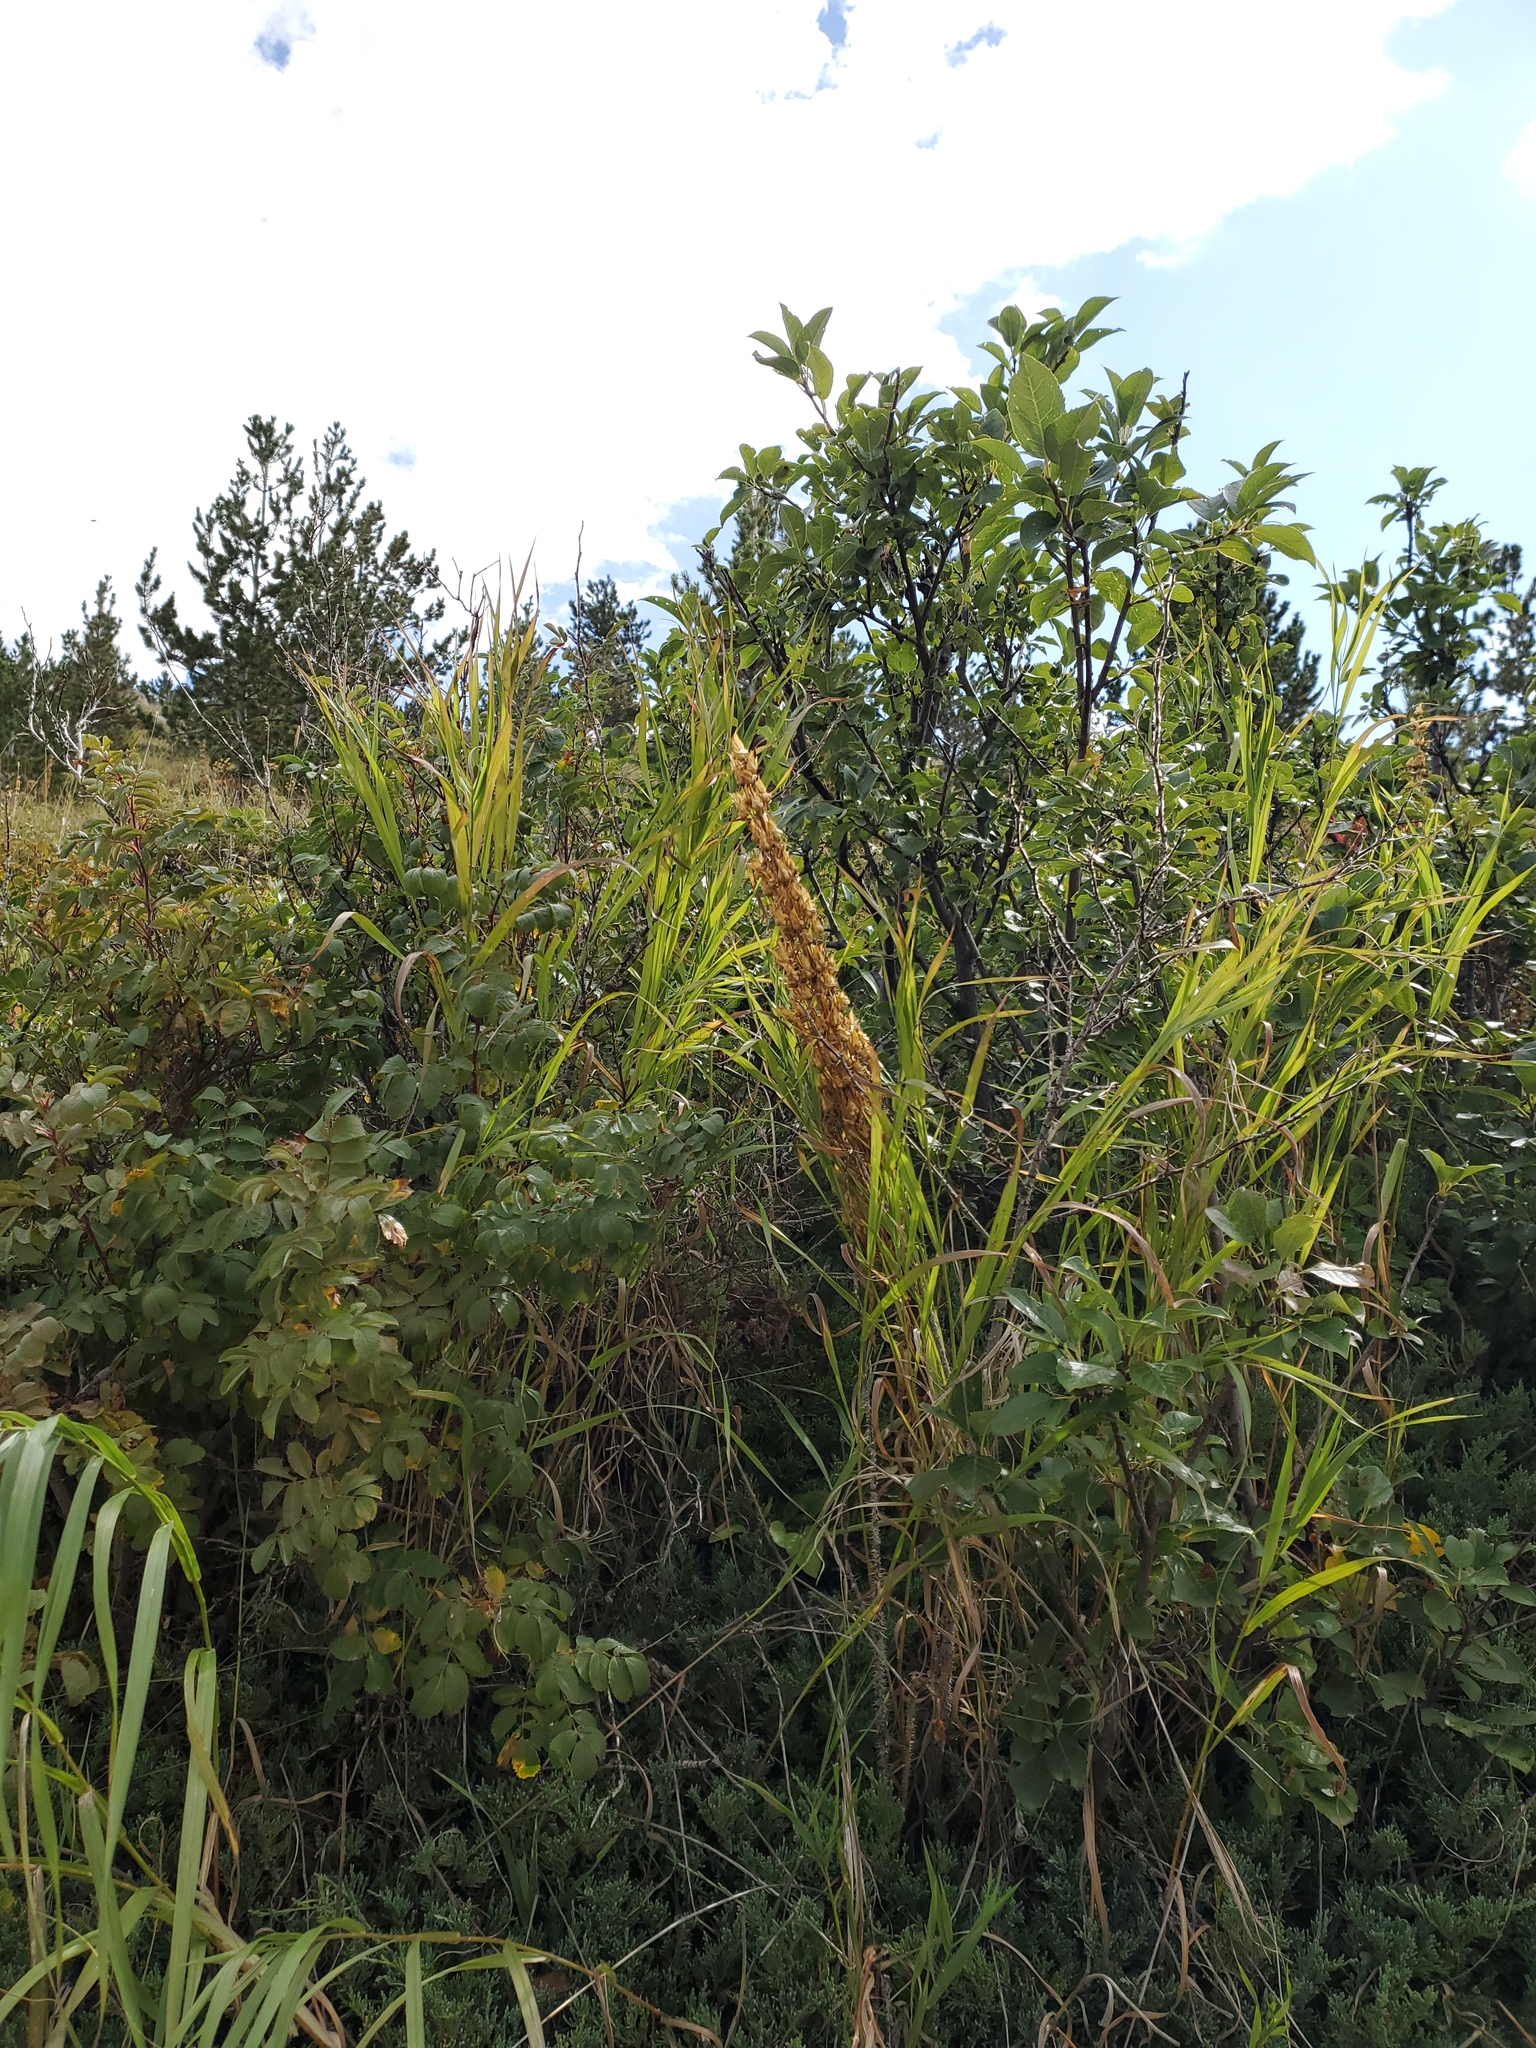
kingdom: Plantae
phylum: Tracheophyta
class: Magnoliopsida
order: Gentianales
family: Gentianaceae
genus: Frasera
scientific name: Frasera speciosa
